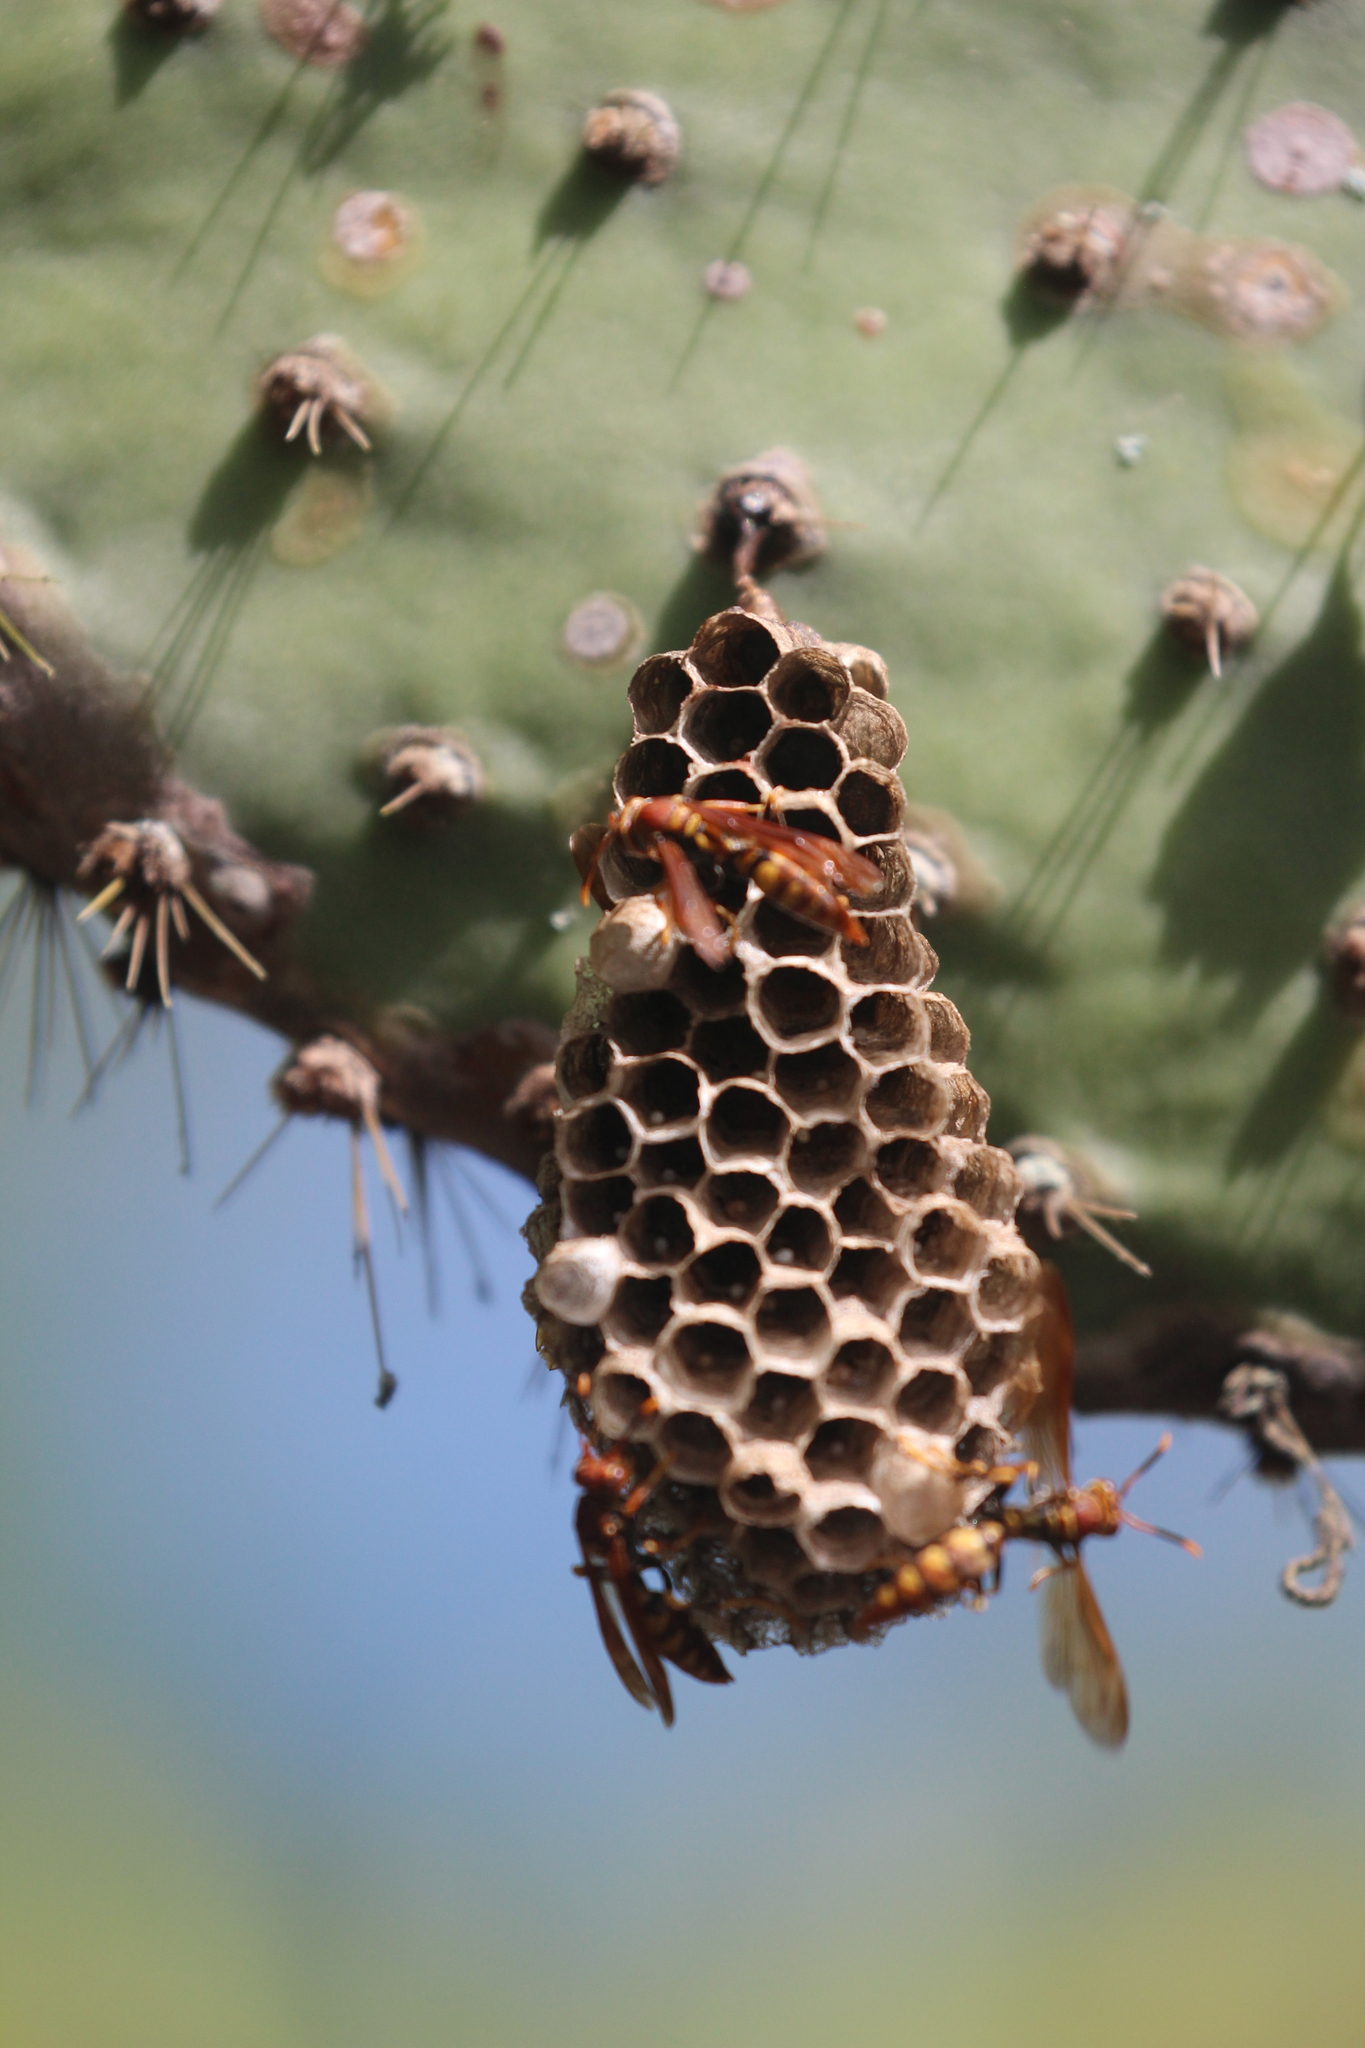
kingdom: Animalia
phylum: Arthropoda
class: Insecta
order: Hymenoptera
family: Eumenidae
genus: Polistes
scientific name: Polistes versicolor
